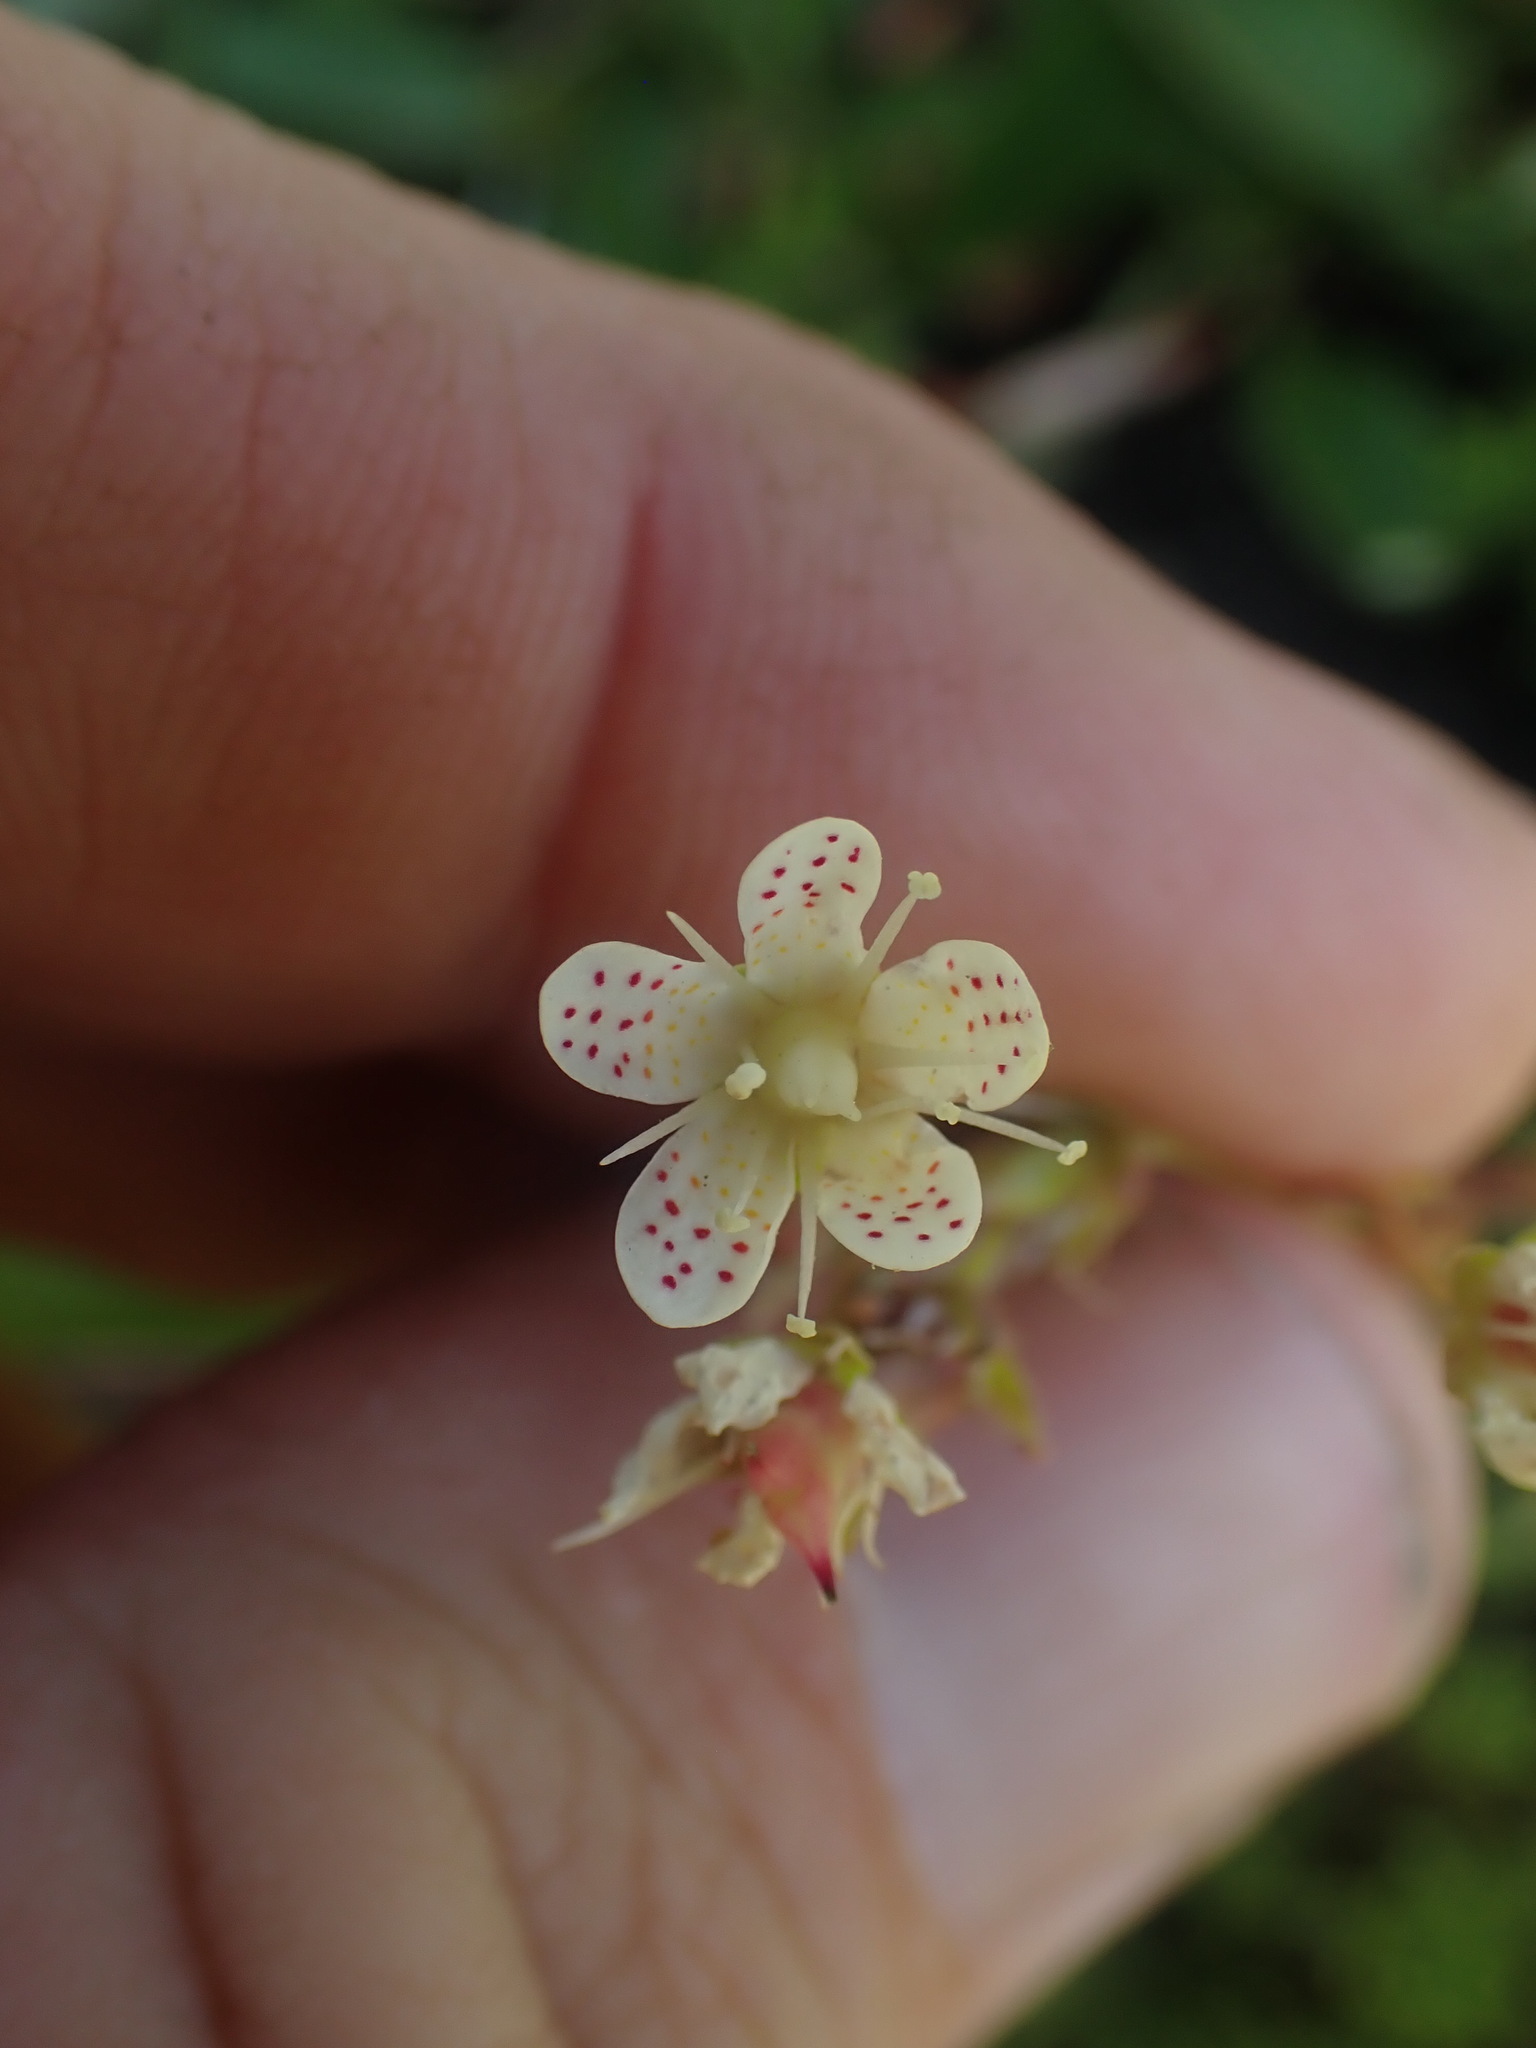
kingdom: Plantae
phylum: Tracheophyta
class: Magnoliopsida
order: Saxifragales
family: Saxifragaceae
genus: Saxifraga
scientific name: Saxifraga bronchialis
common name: Matted saxifrage
